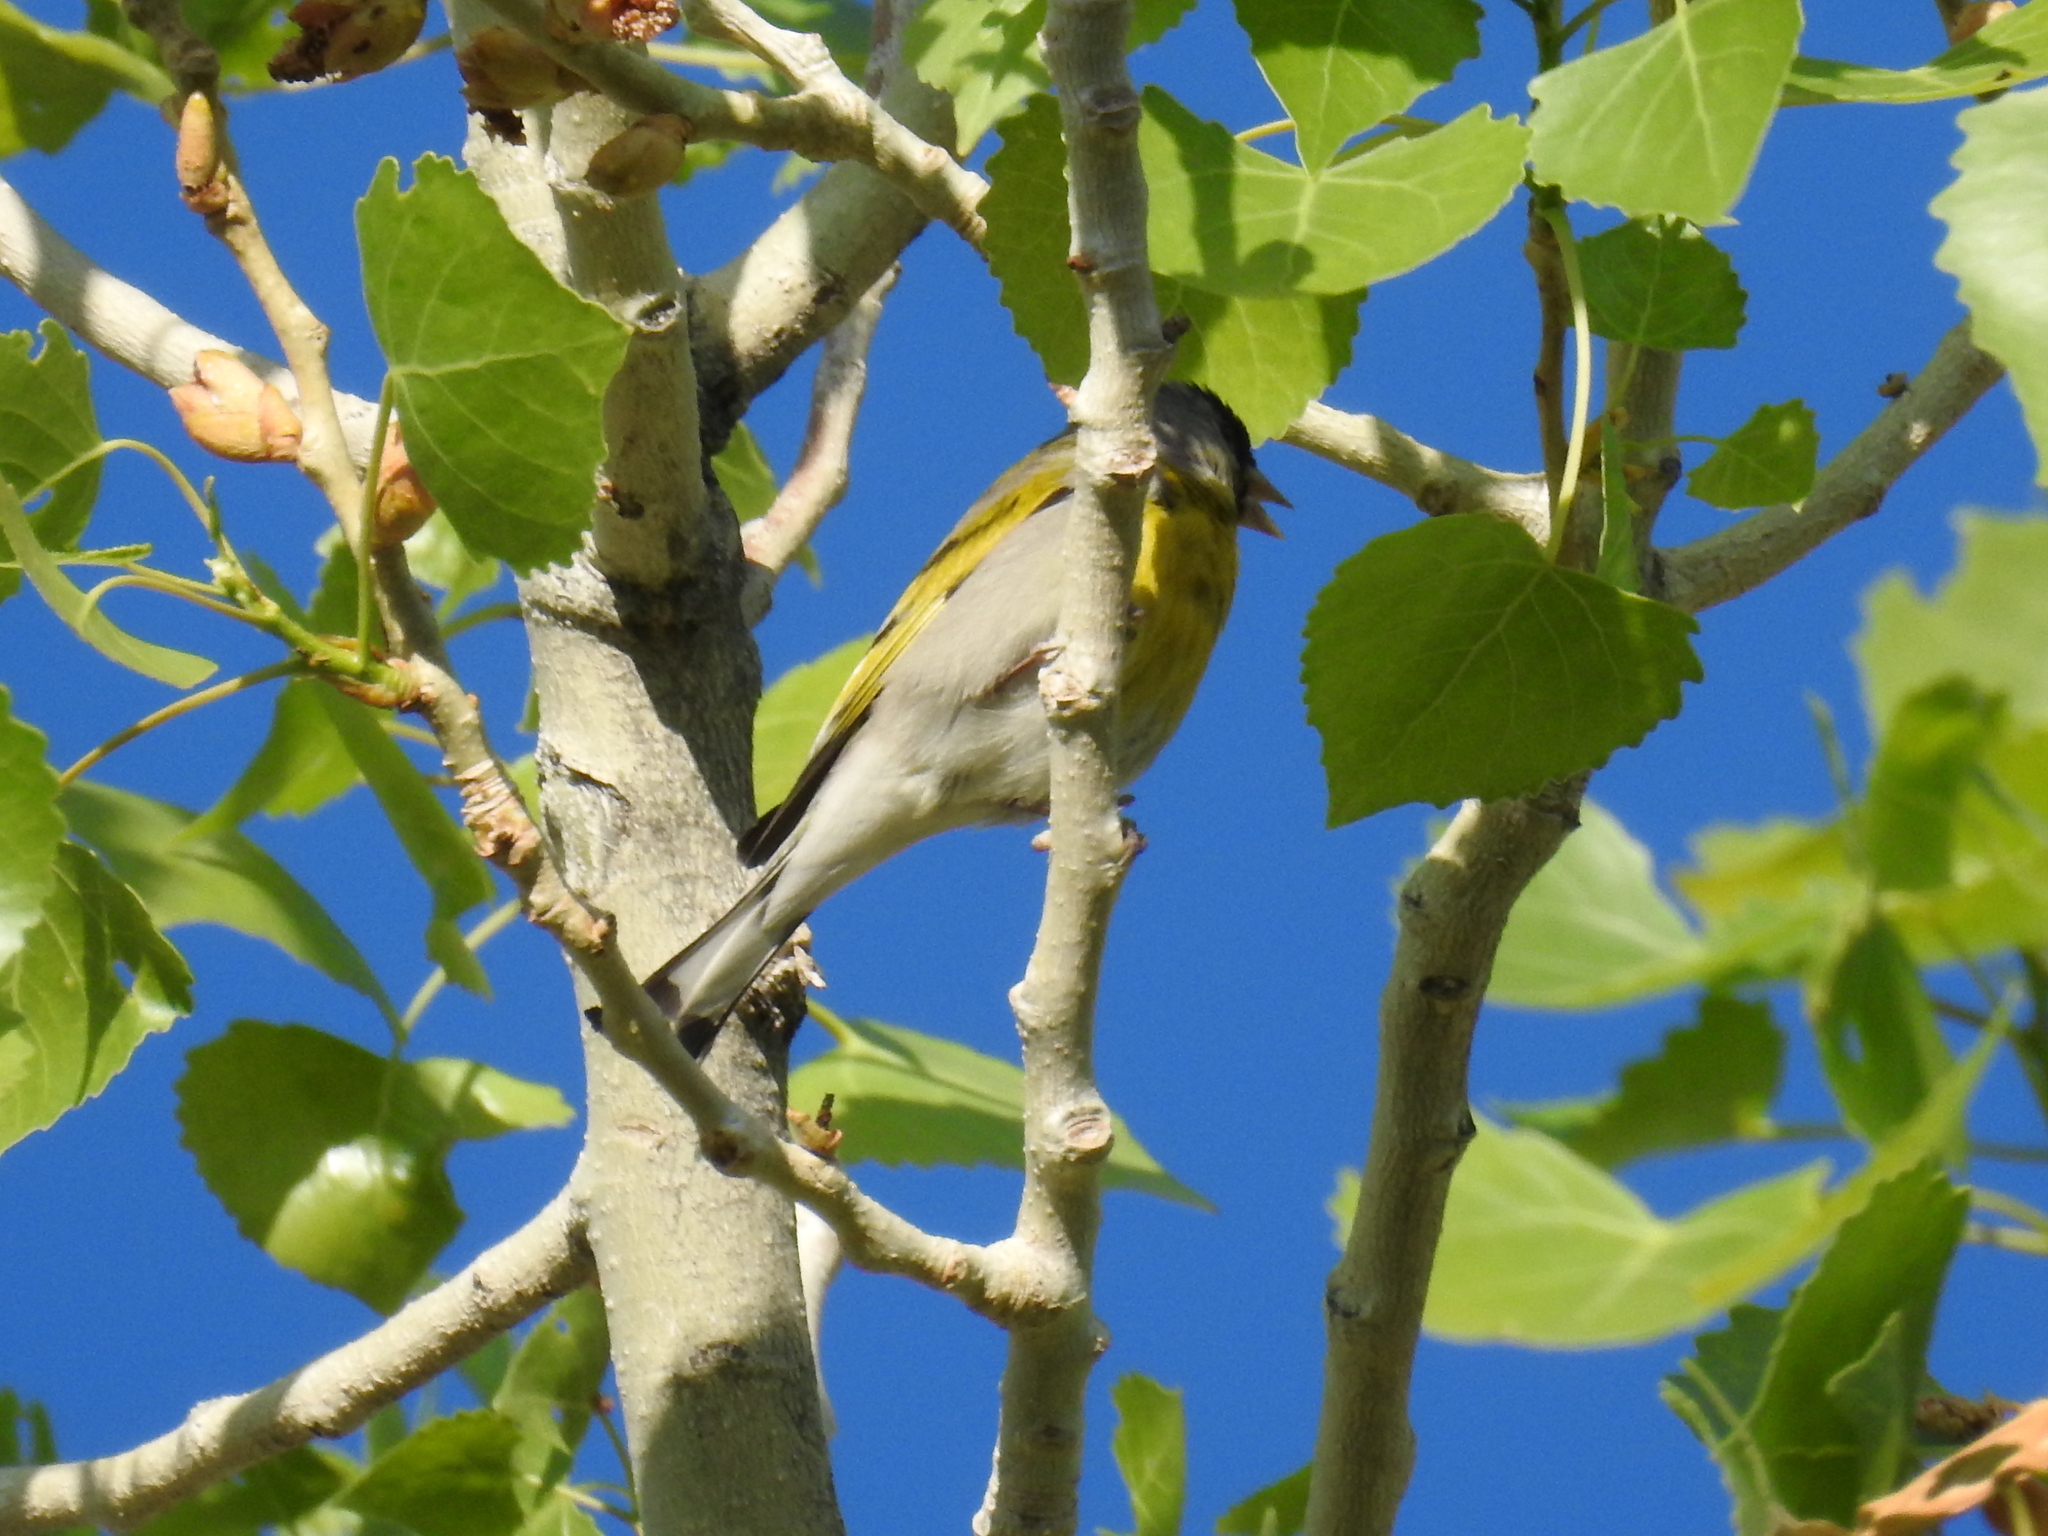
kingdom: Animalia
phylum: Chordata
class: Aves
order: Passeriformes
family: Fringillidae
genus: Spinus
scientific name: Spinus lawrencei
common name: Lawrence's goldfinch
